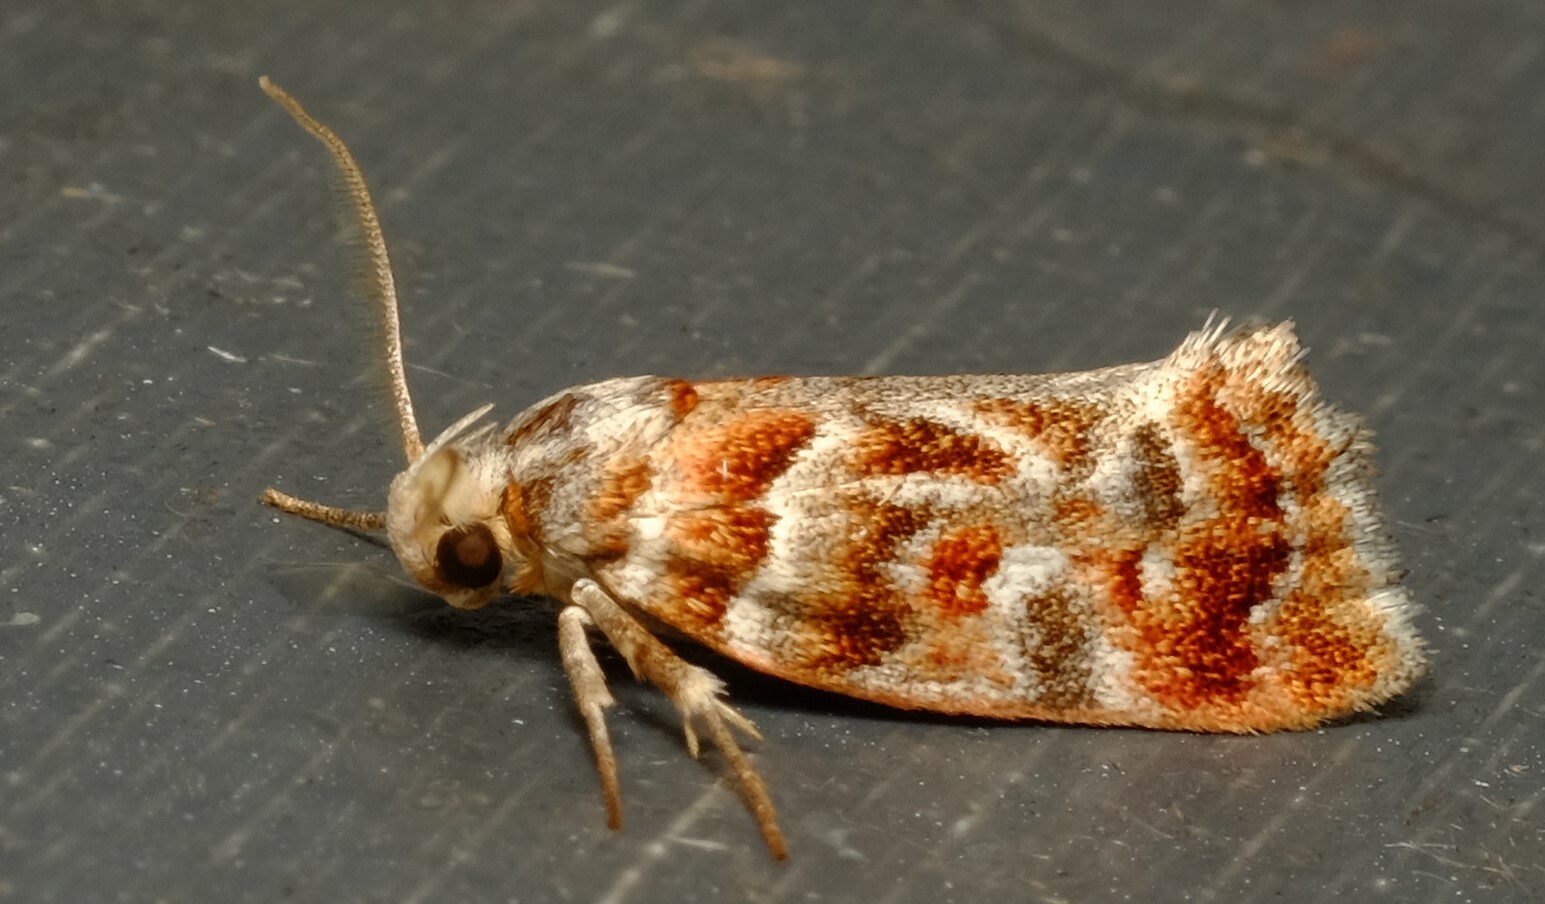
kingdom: Animalia
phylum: Arthropoda
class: Insecta
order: Lepidoptera
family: Oecophoridae
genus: Acmotoma
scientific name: Acmotoma magniferella
